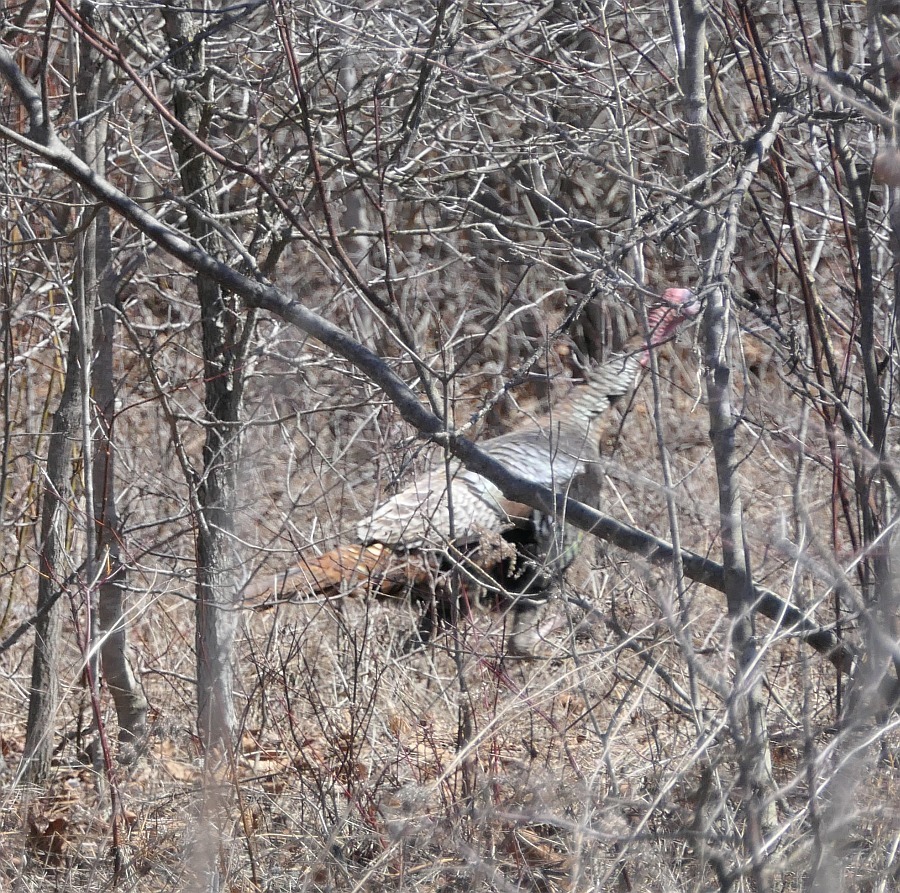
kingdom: Animalia
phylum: Chordata
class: Aves
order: Galliformes
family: Phasianidae
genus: Meleagris
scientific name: Meleagris gallopavo
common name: Wild turkey
